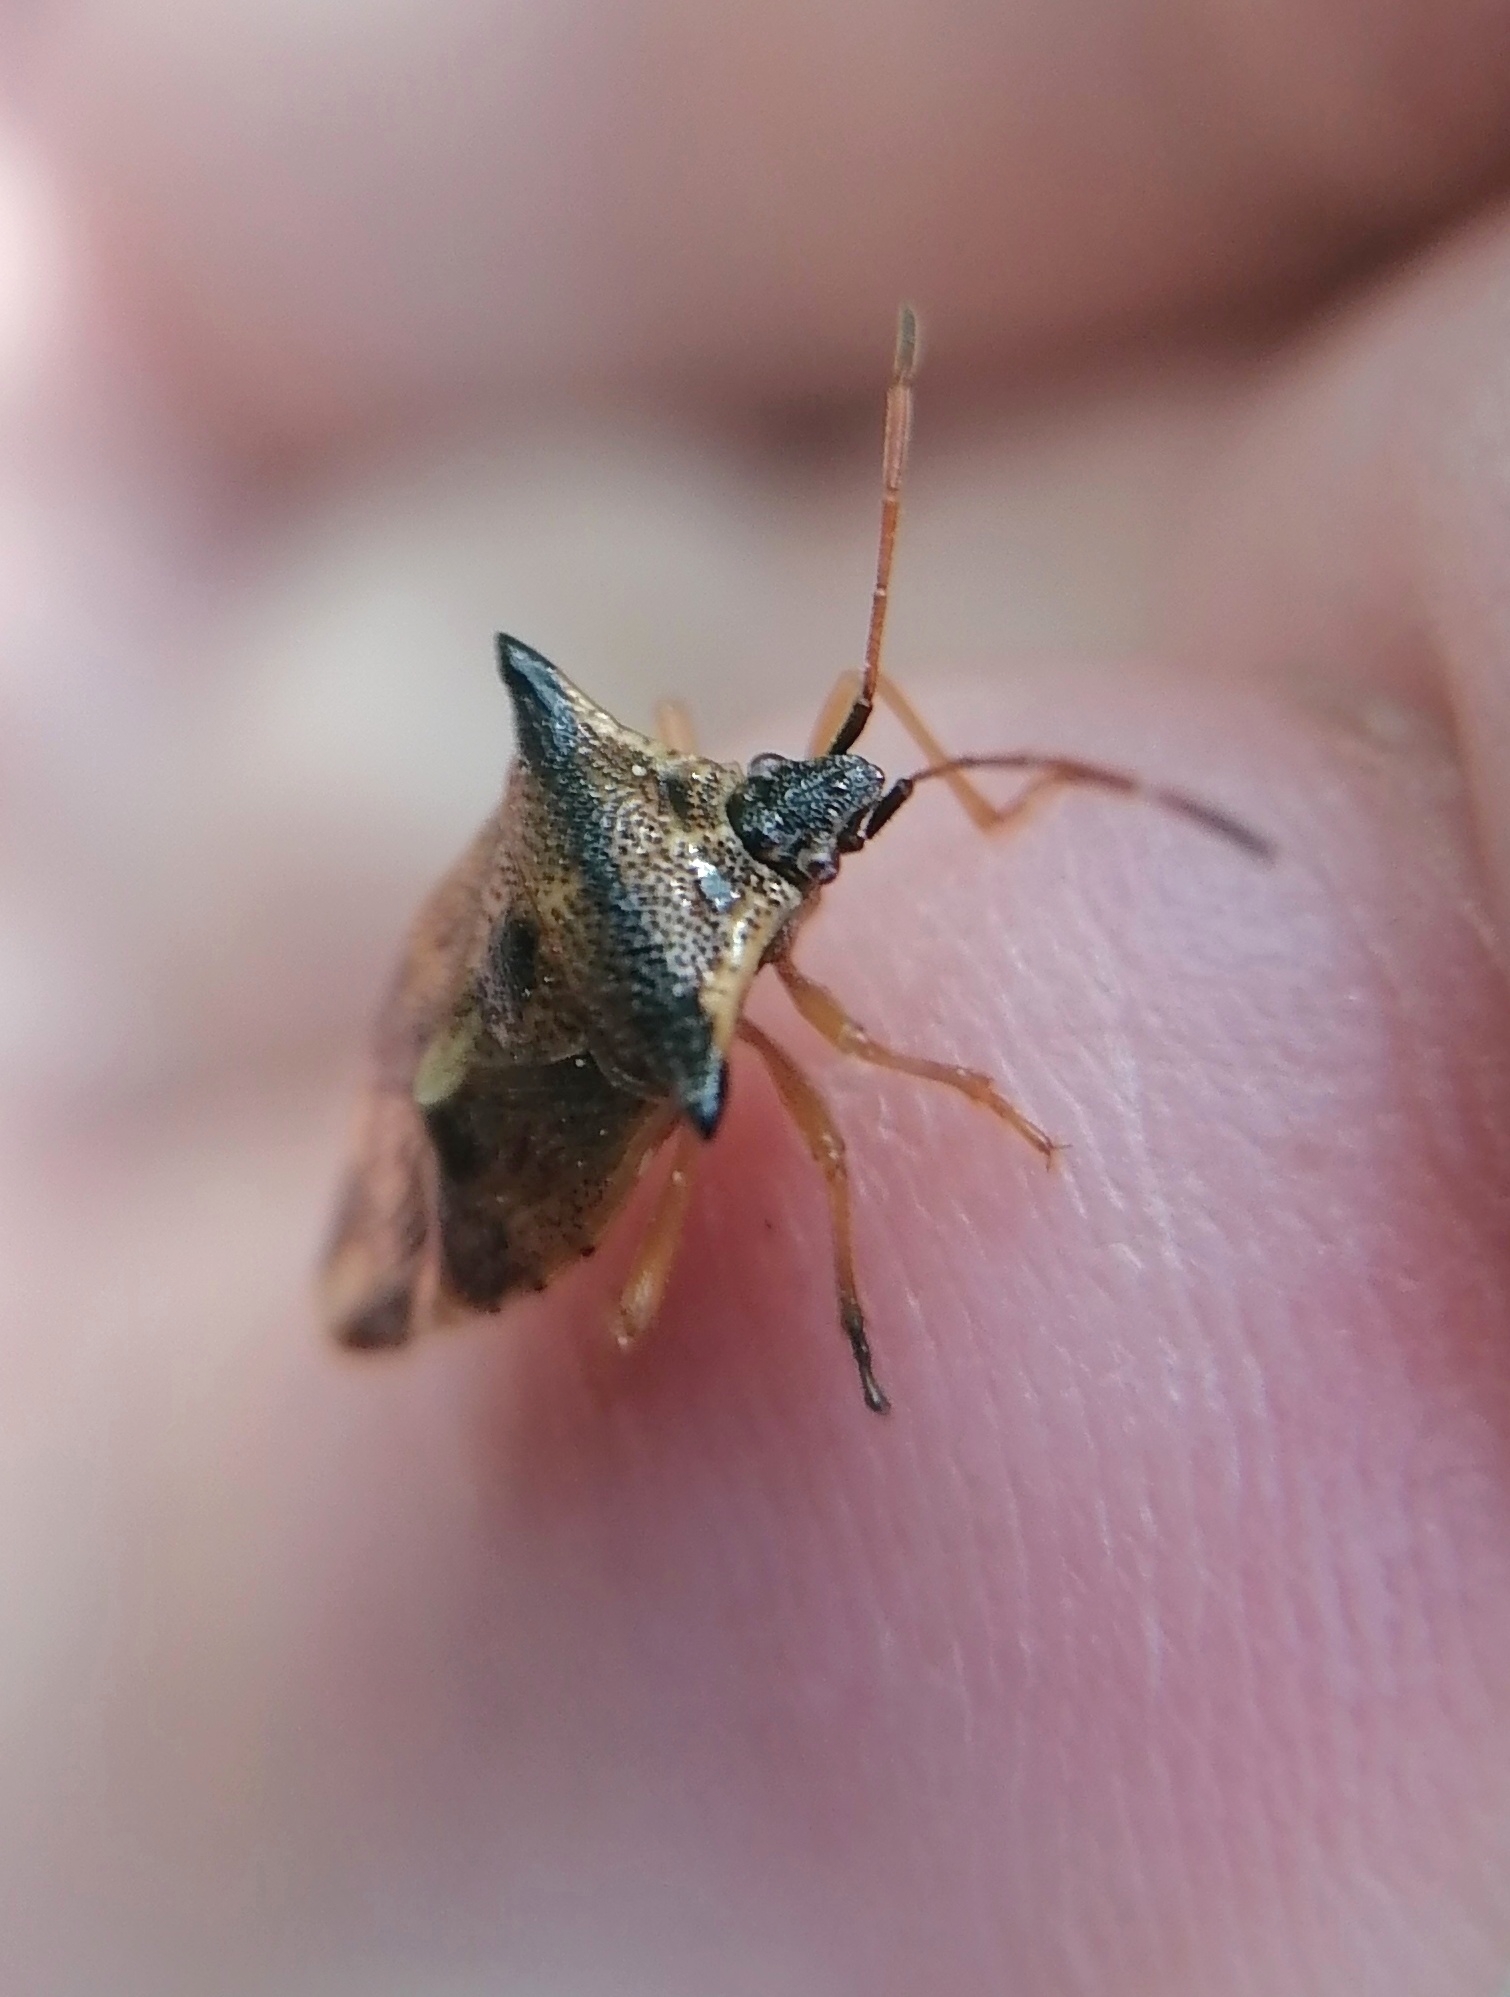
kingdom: Animalia
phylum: Arthropoda
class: Insecta
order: Hemiptera
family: Acanthosomatidae
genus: Elasmucha
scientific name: Elasmucha ferrugata
